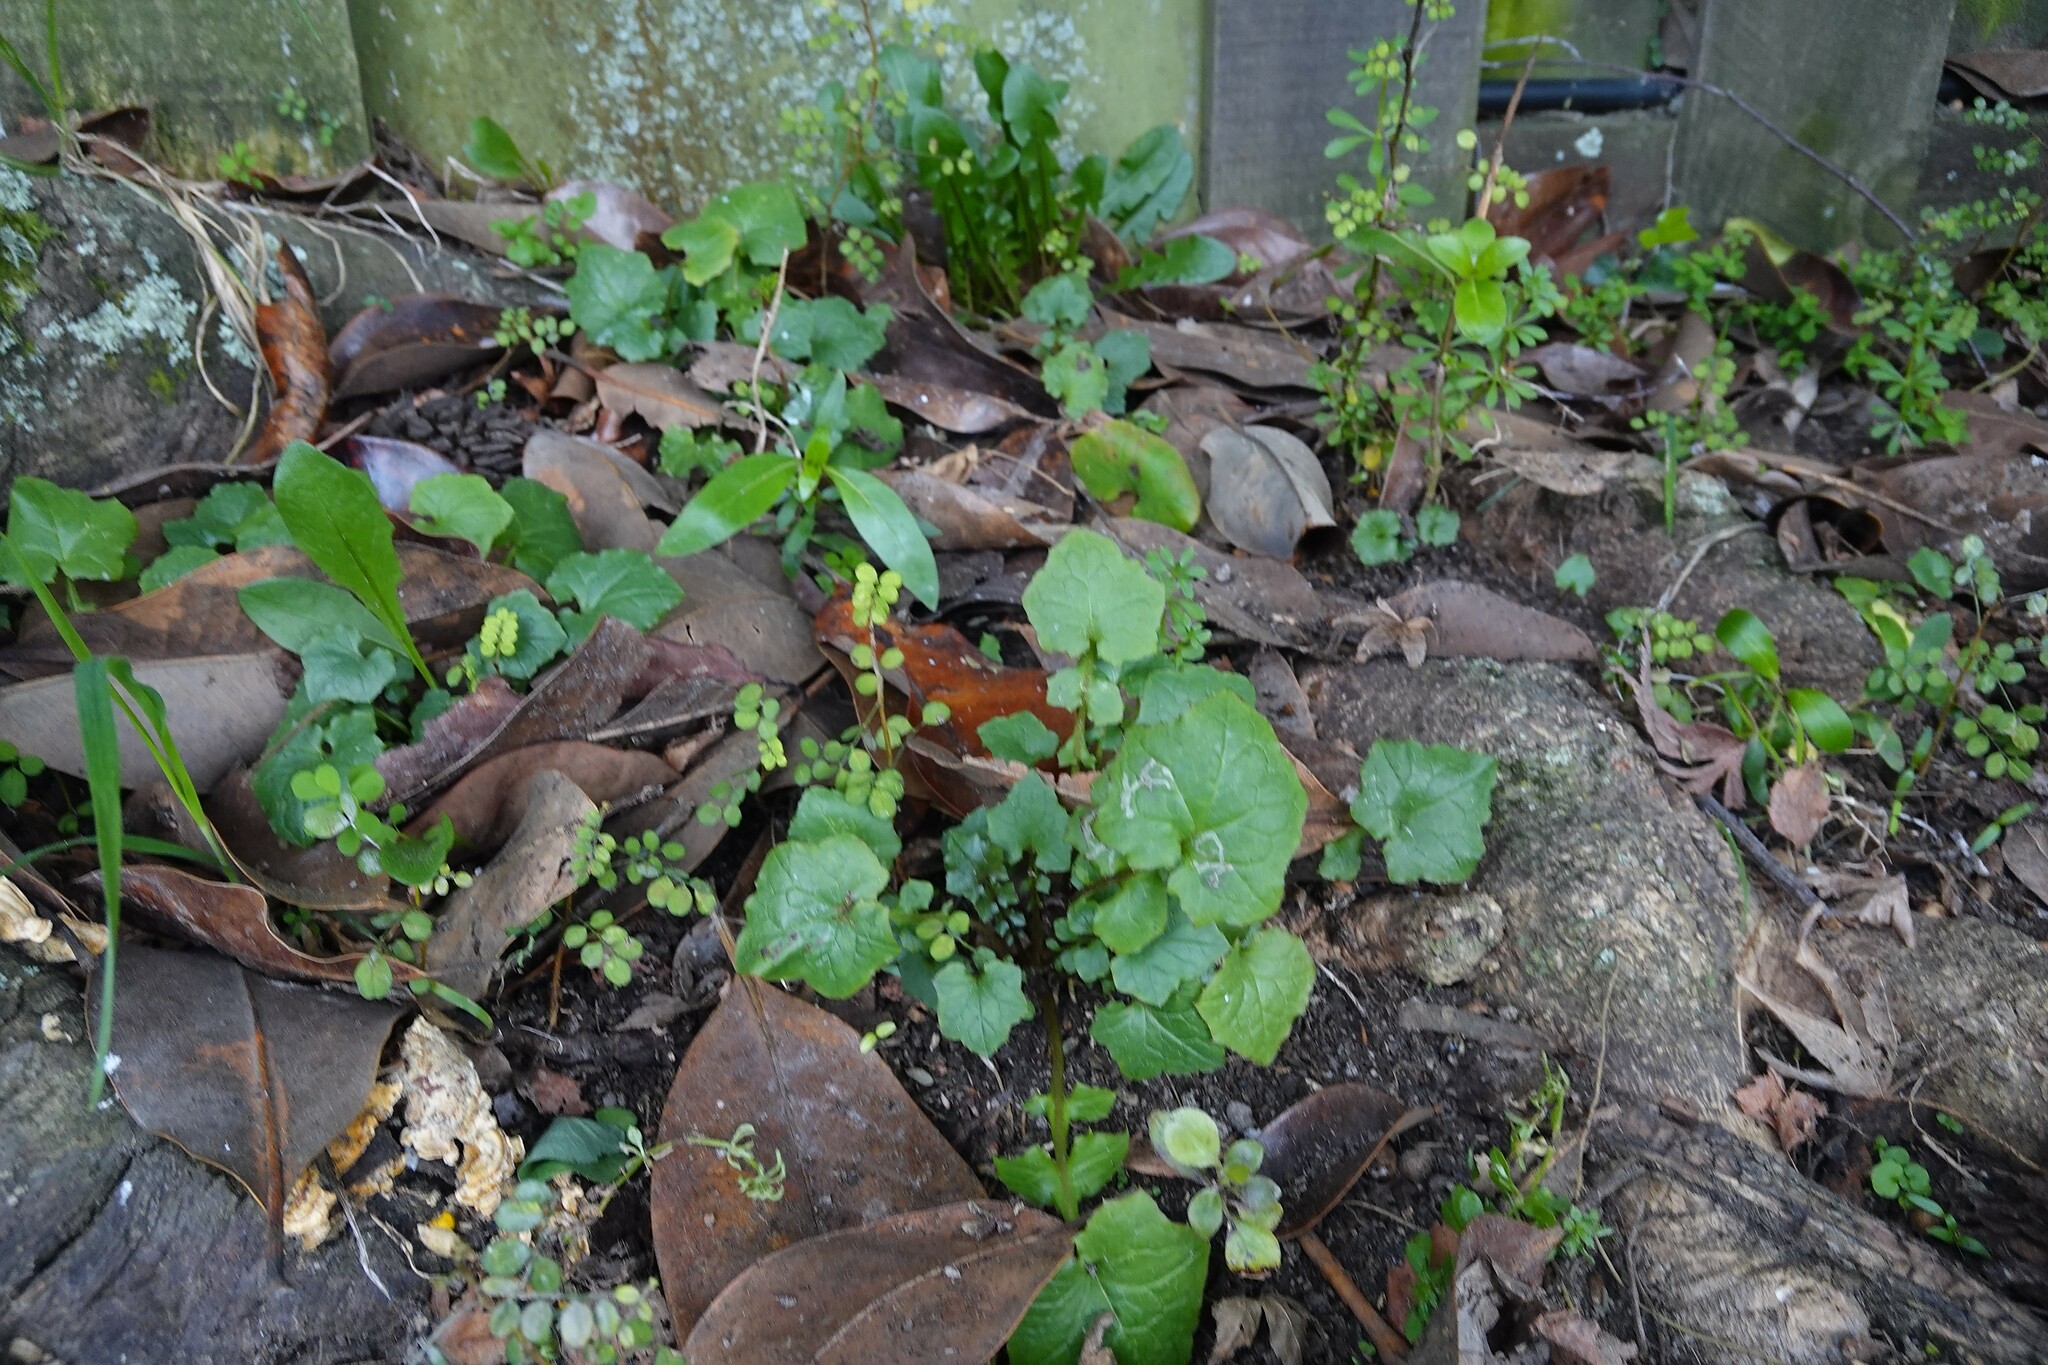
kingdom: Plantae
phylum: Tracheophyta
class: Magnoliopsida
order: Asterales
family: Asteraceae
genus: Mycelis
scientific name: Mycelis muralis
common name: Wall lettuce
